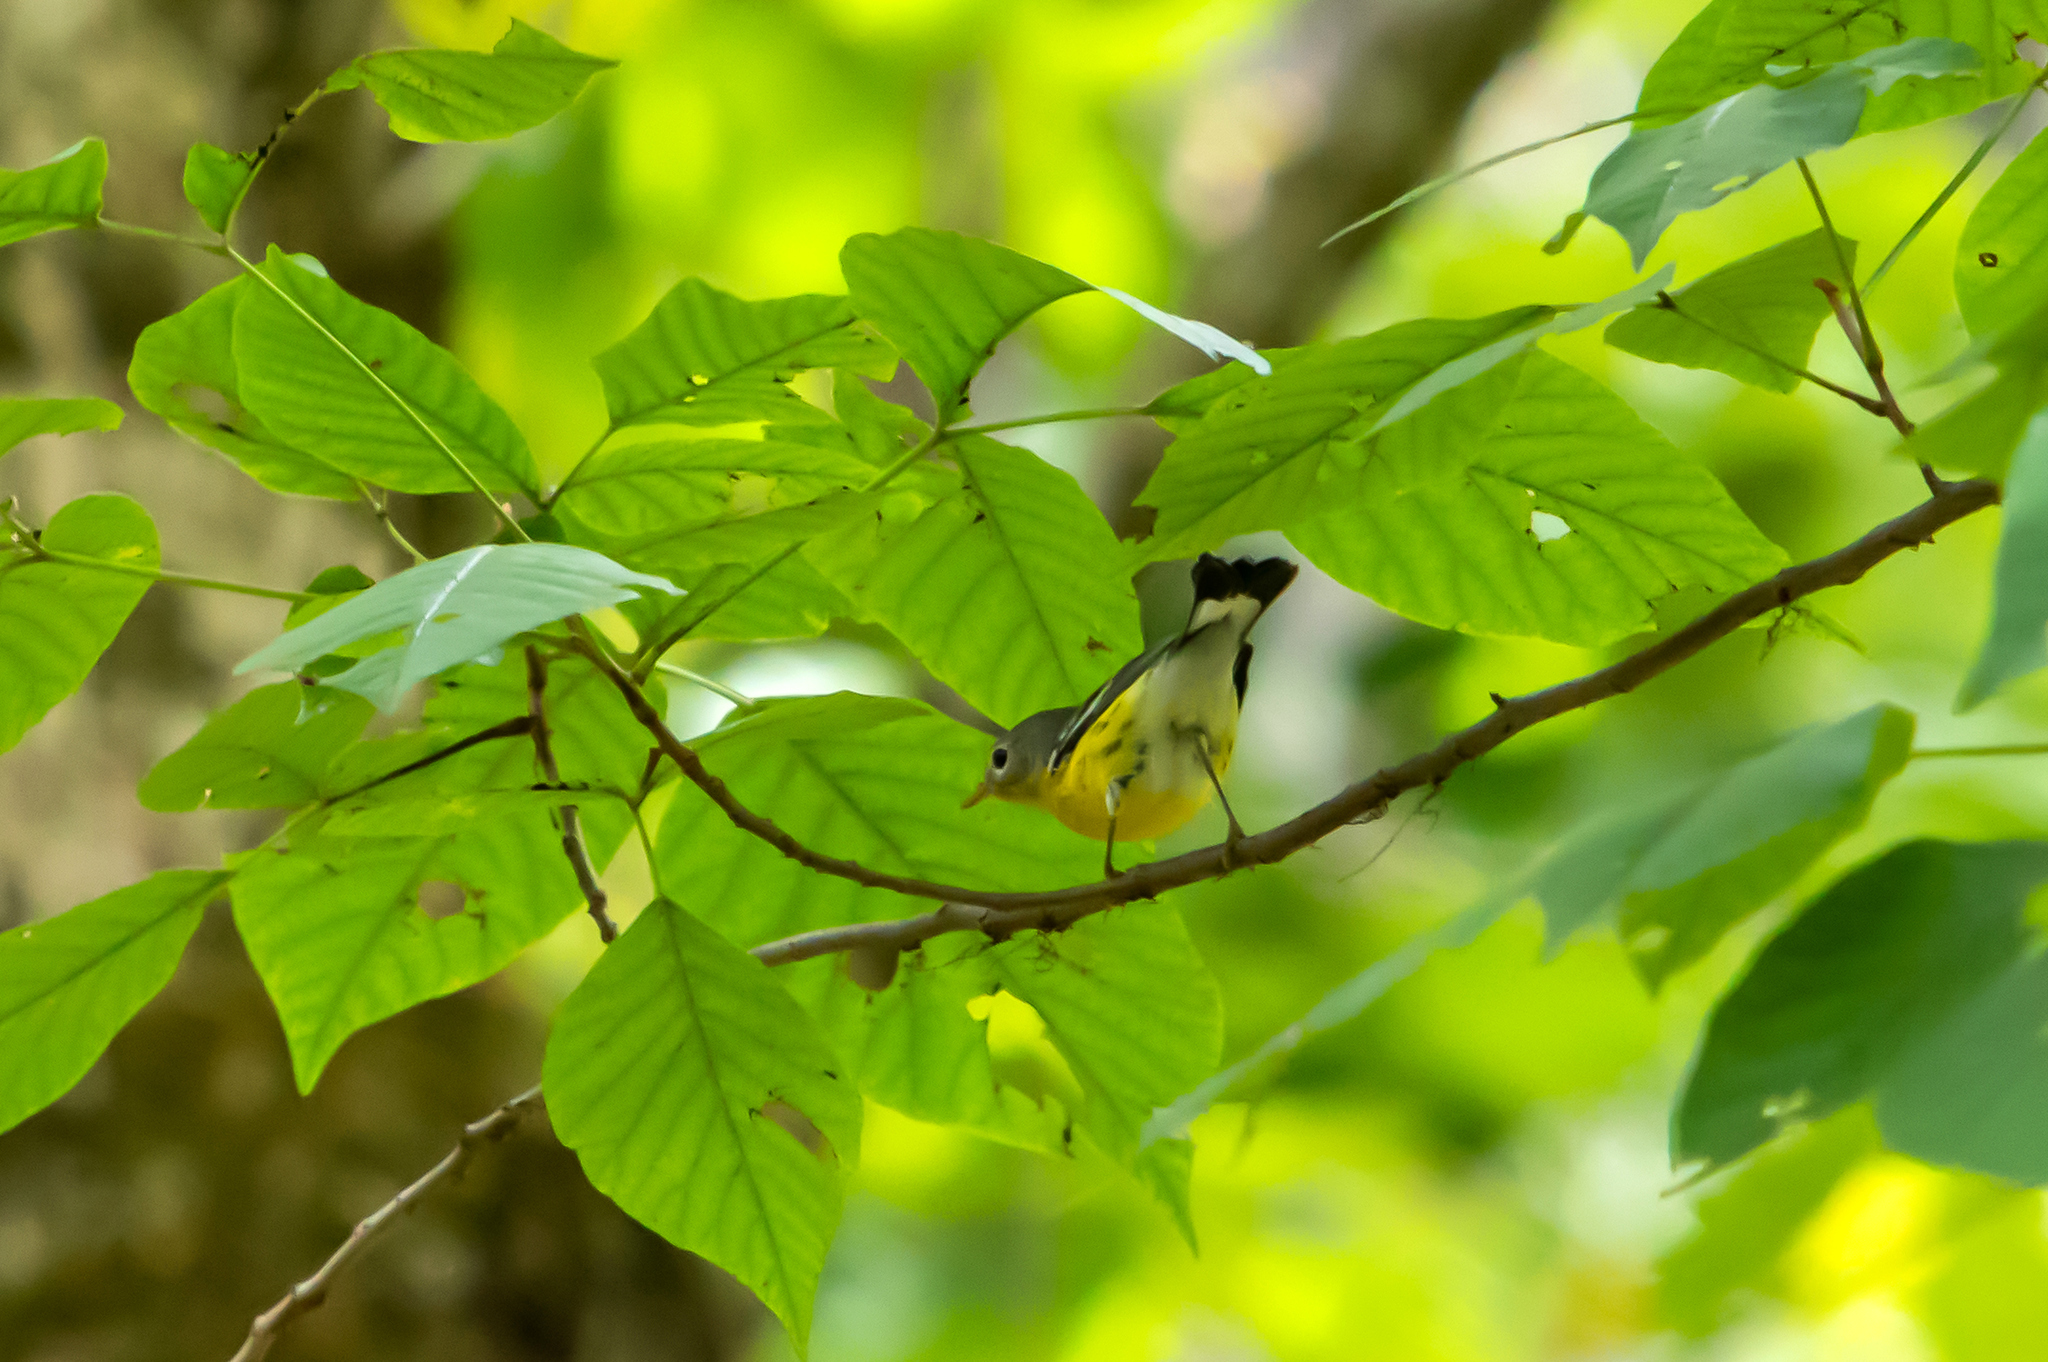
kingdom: Animalia
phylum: Chordata
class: Aves
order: Passeriformes
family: Parulidae
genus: Setophaga
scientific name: Setophaga magnolia
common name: Magnolia warbler
